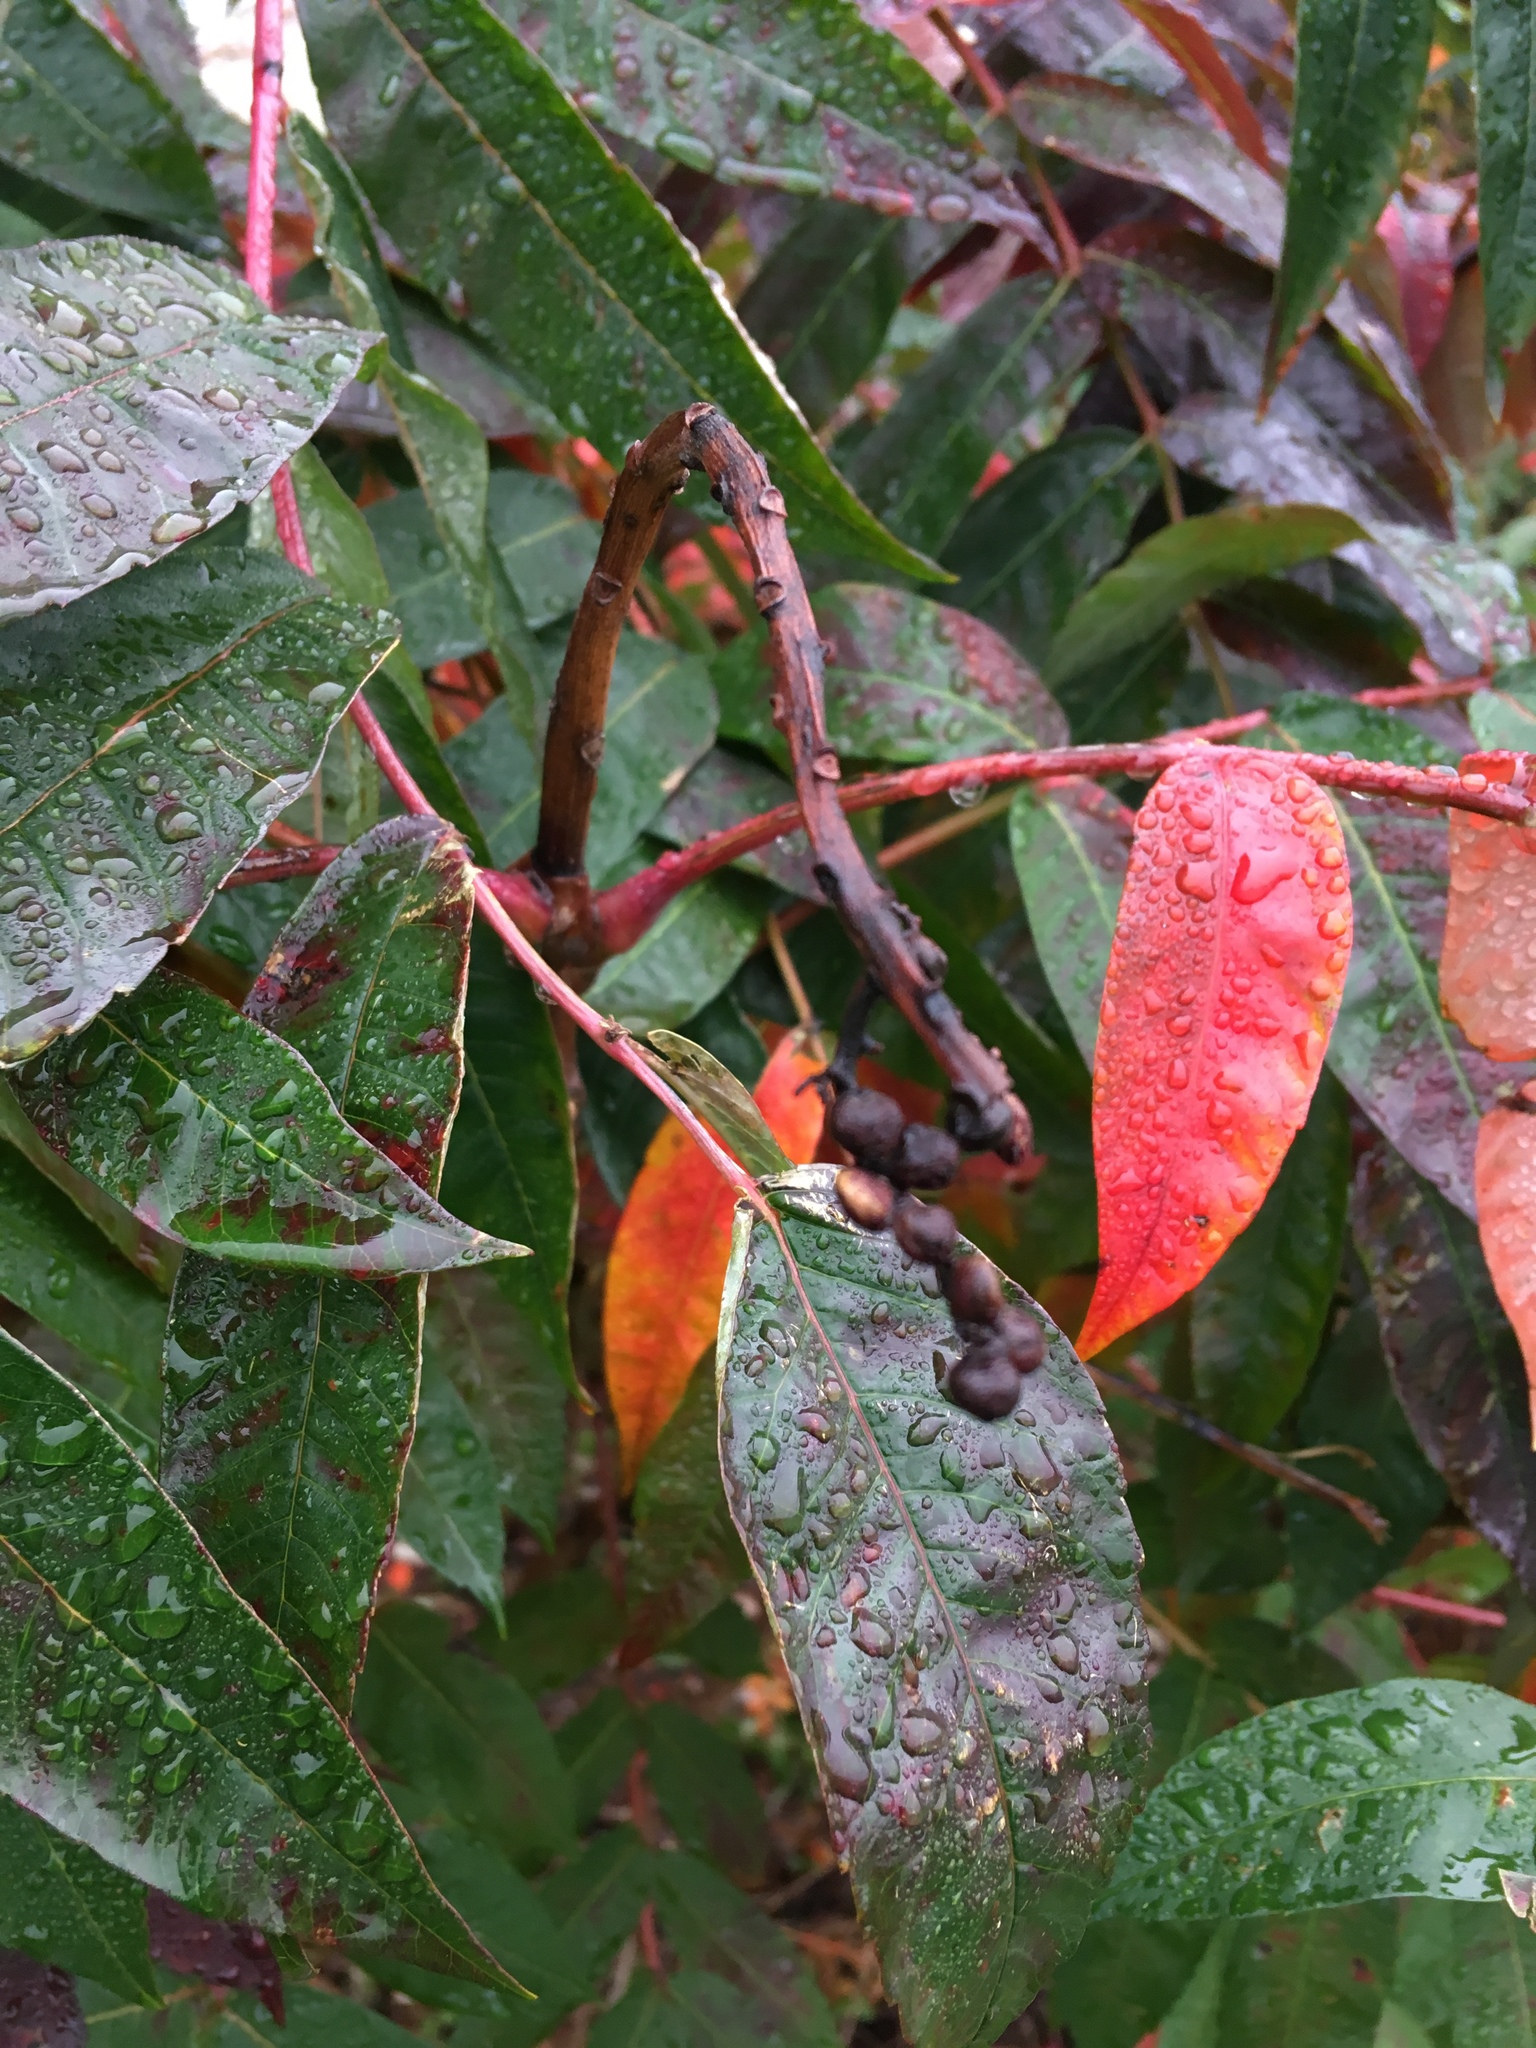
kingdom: Plantae
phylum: Tracheophyta
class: Magnoliopsida
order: Sapindales
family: Anacardiaceae
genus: Rhus
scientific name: Rhus glabra
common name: Scarlet sumac
